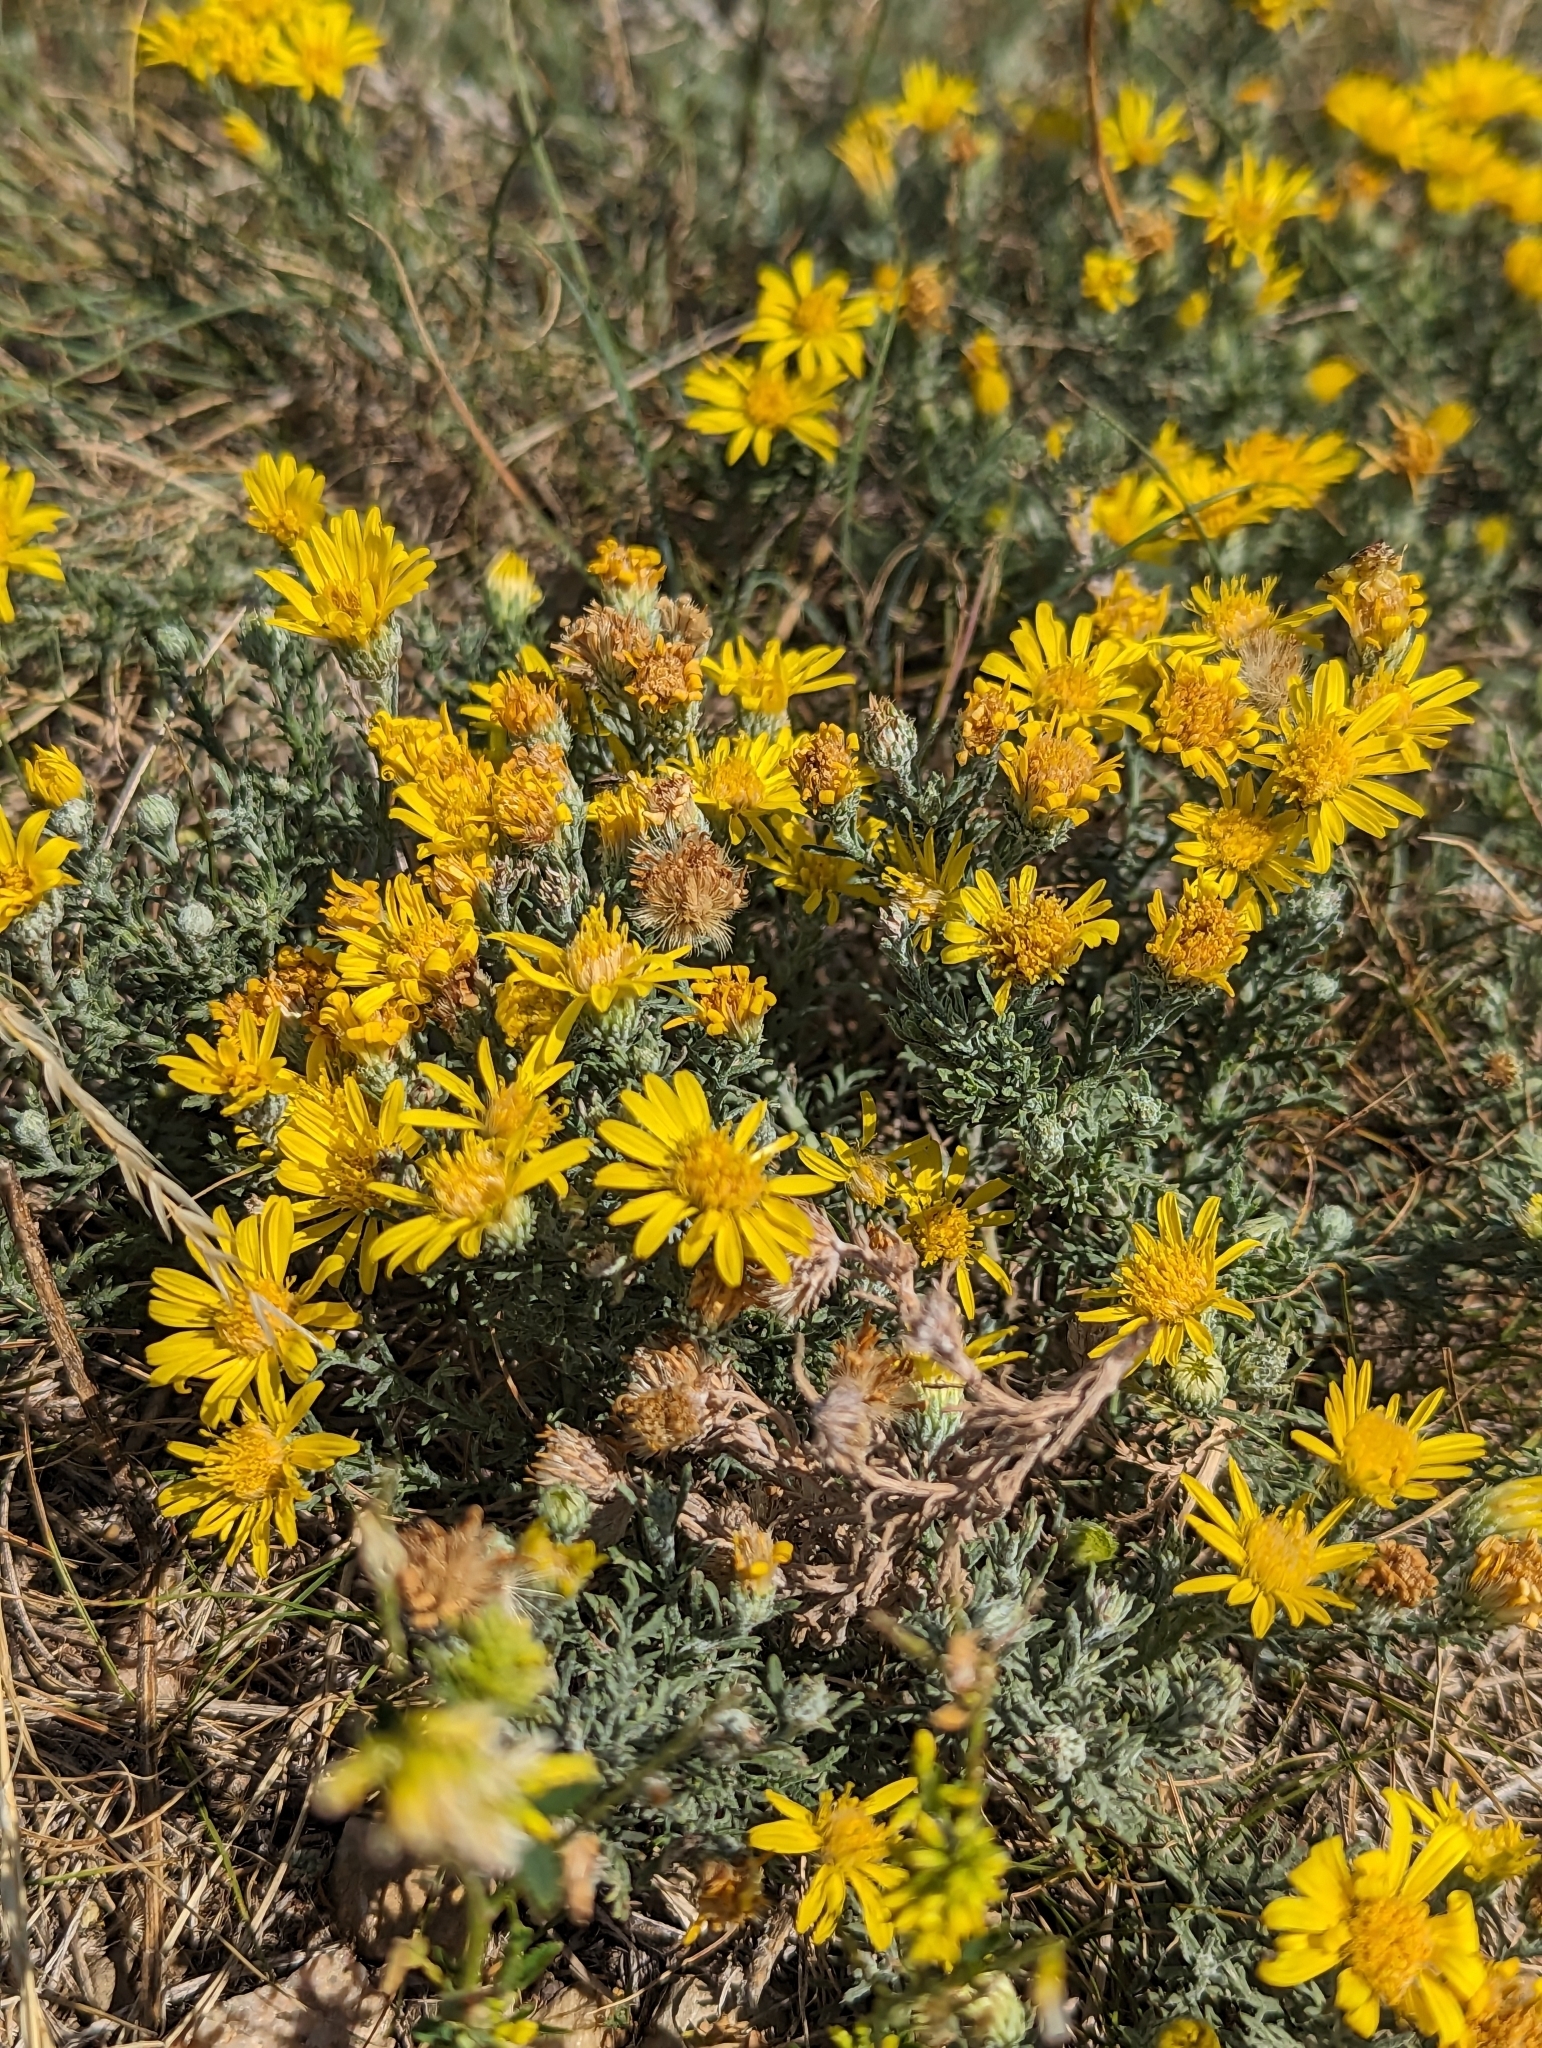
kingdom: Plantae
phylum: Tracheophyta
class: Magnoliopsida
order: Asterales
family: Asteraceae
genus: Xanthisma
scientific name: Xanthisma spinulosum
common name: Spiny goldenweed
